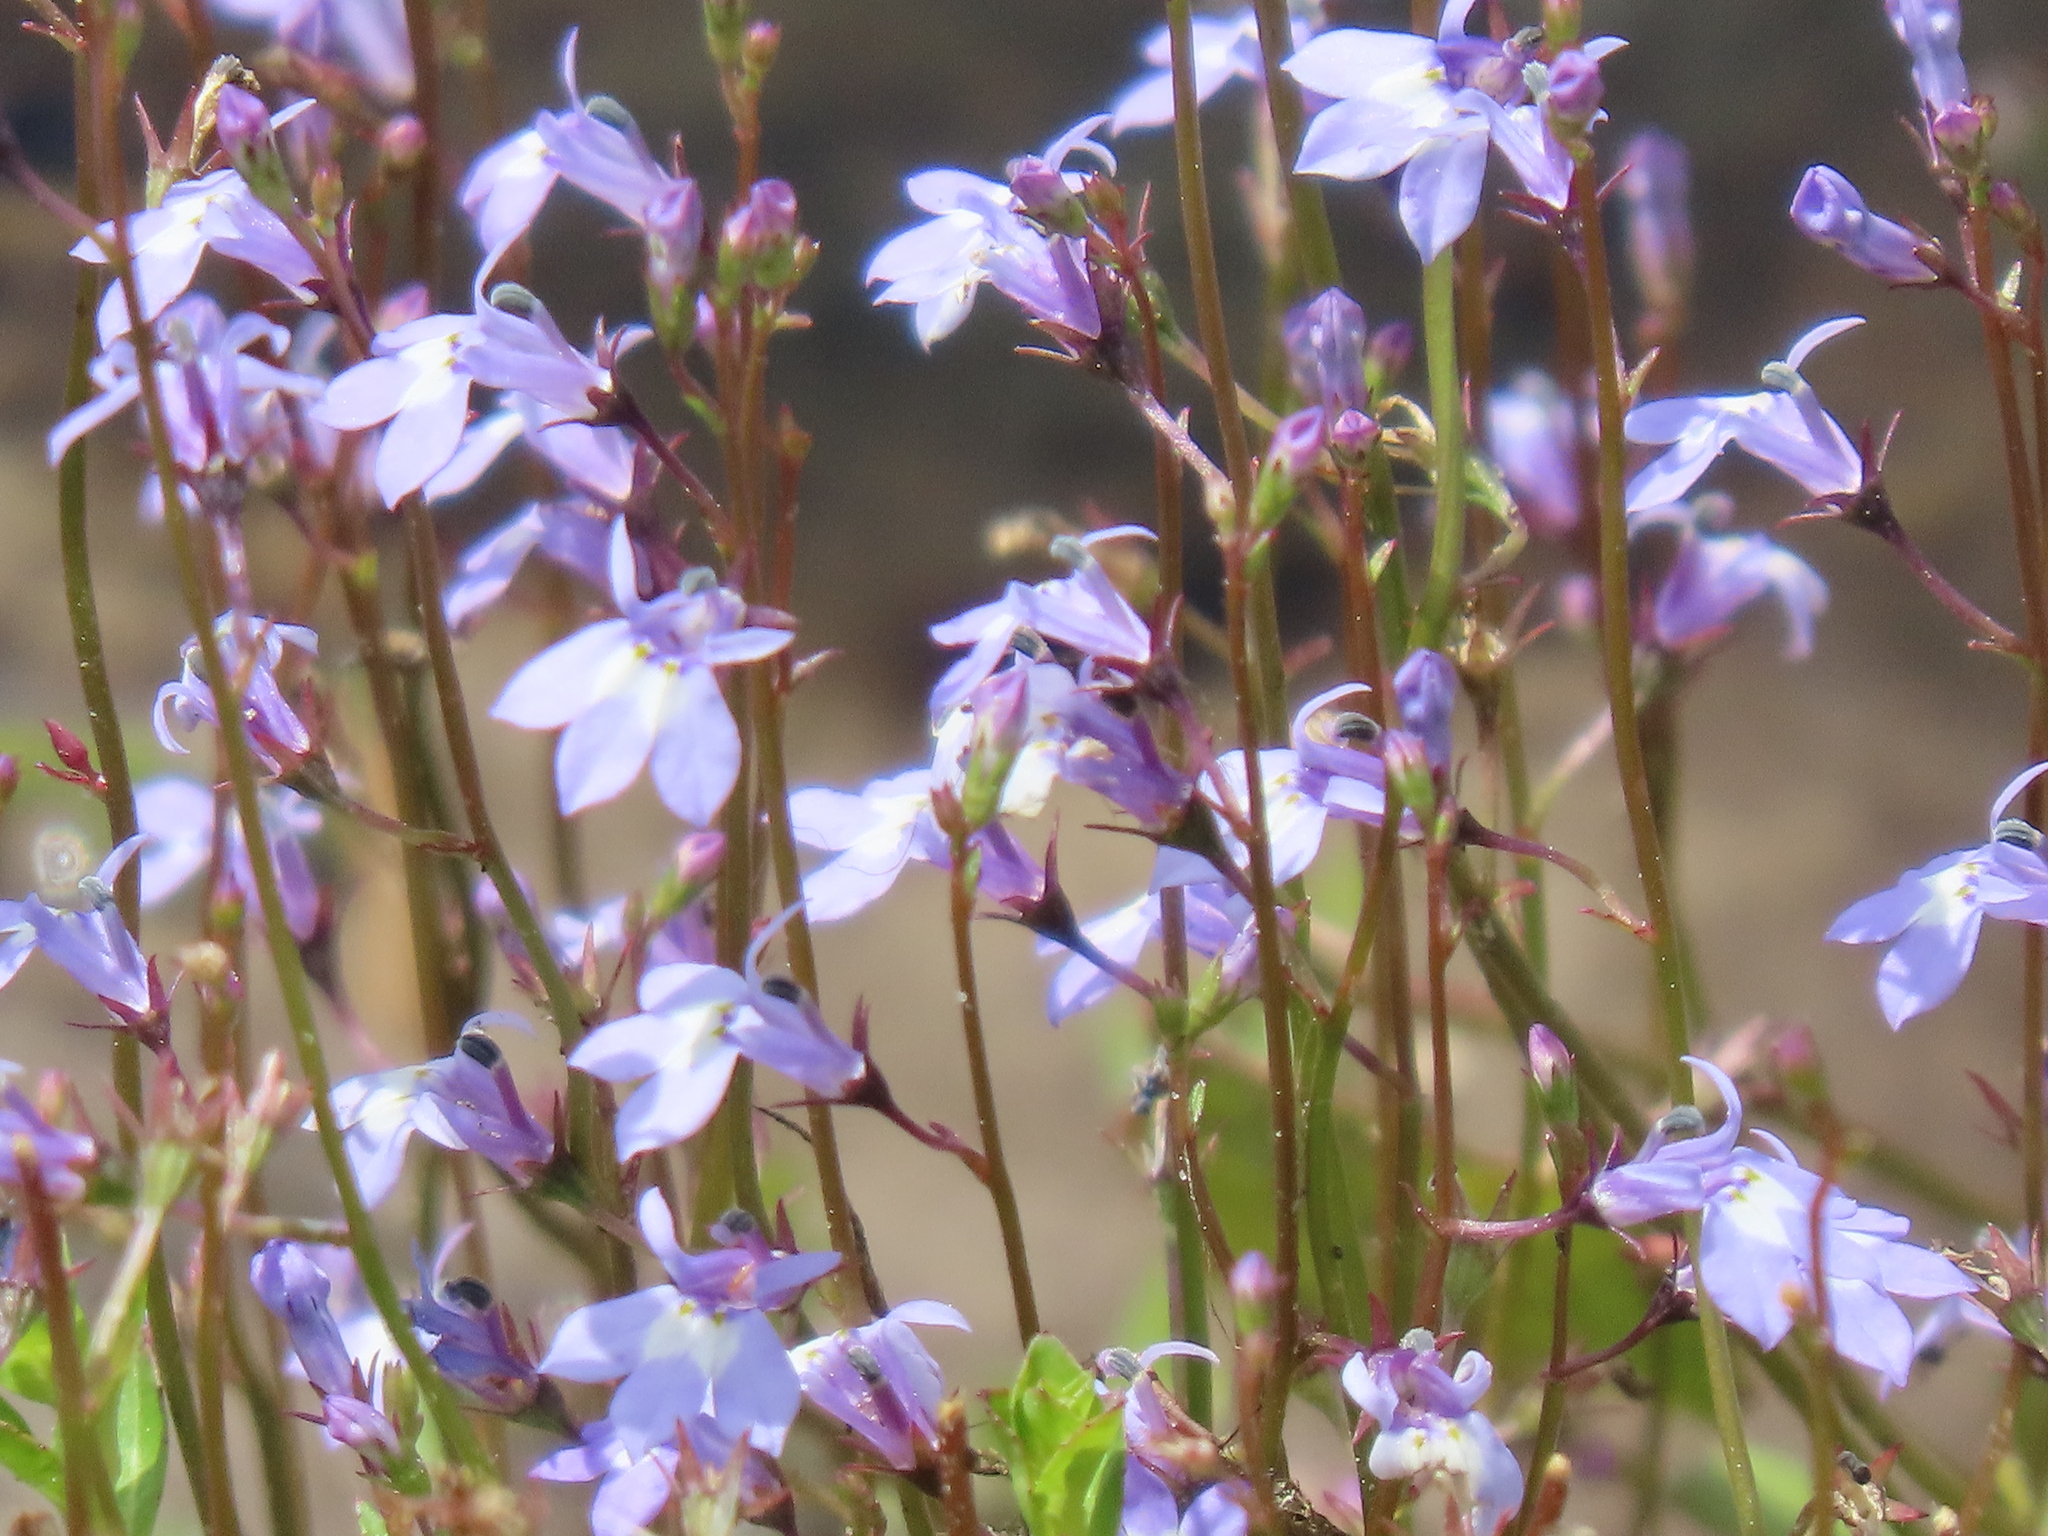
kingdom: Plantae
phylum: Tracheophyta
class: Magnoliopsida
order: Asterales
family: Campanulaceae
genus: Lobelia
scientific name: Lobelia feayana
